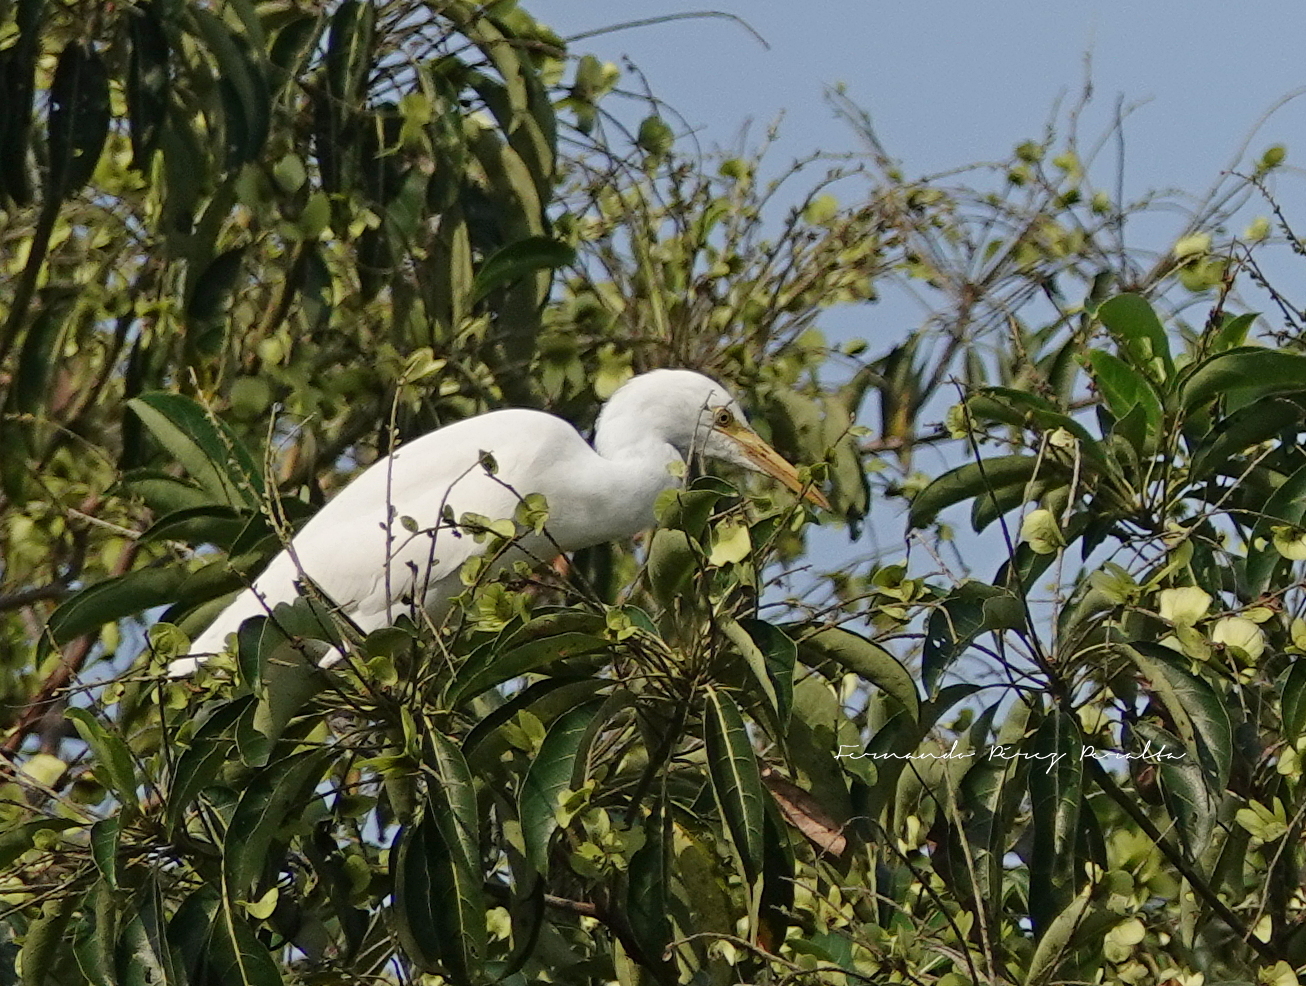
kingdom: Animalia
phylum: Chordata
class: Aves
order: Pelecaniformes
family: Ardeidae
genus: Bubulcus
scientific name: Bubulcus coromandus
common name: Eastern cattle egret
